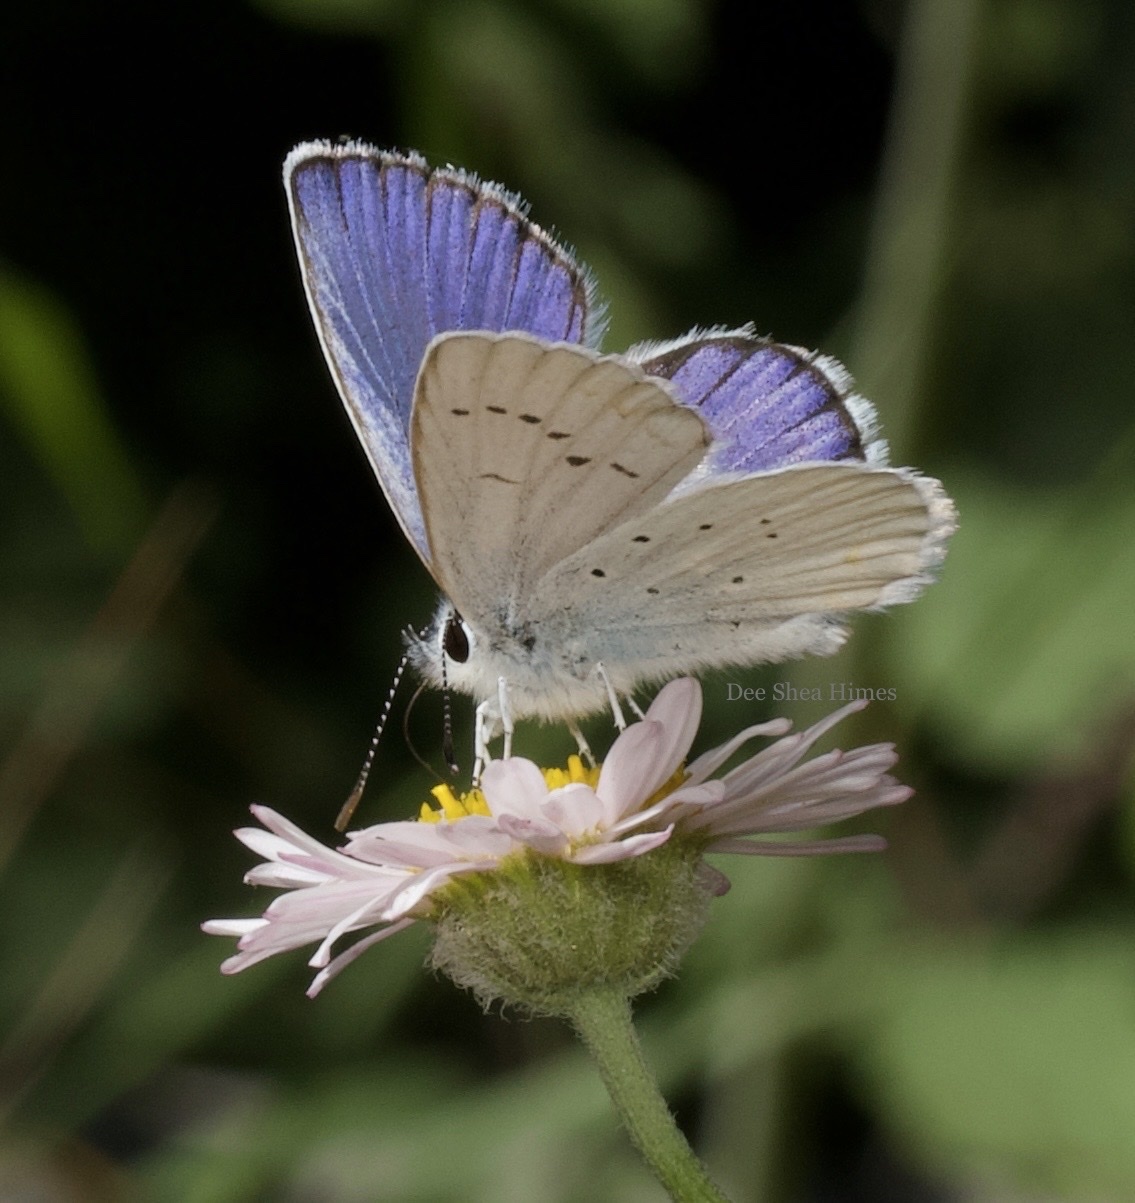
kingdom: Animalia
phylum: Arthropoda
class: Insecta
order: Lepidoptera
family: Lycaenidae
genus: Lycaeides
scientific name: Lycaeides anna
